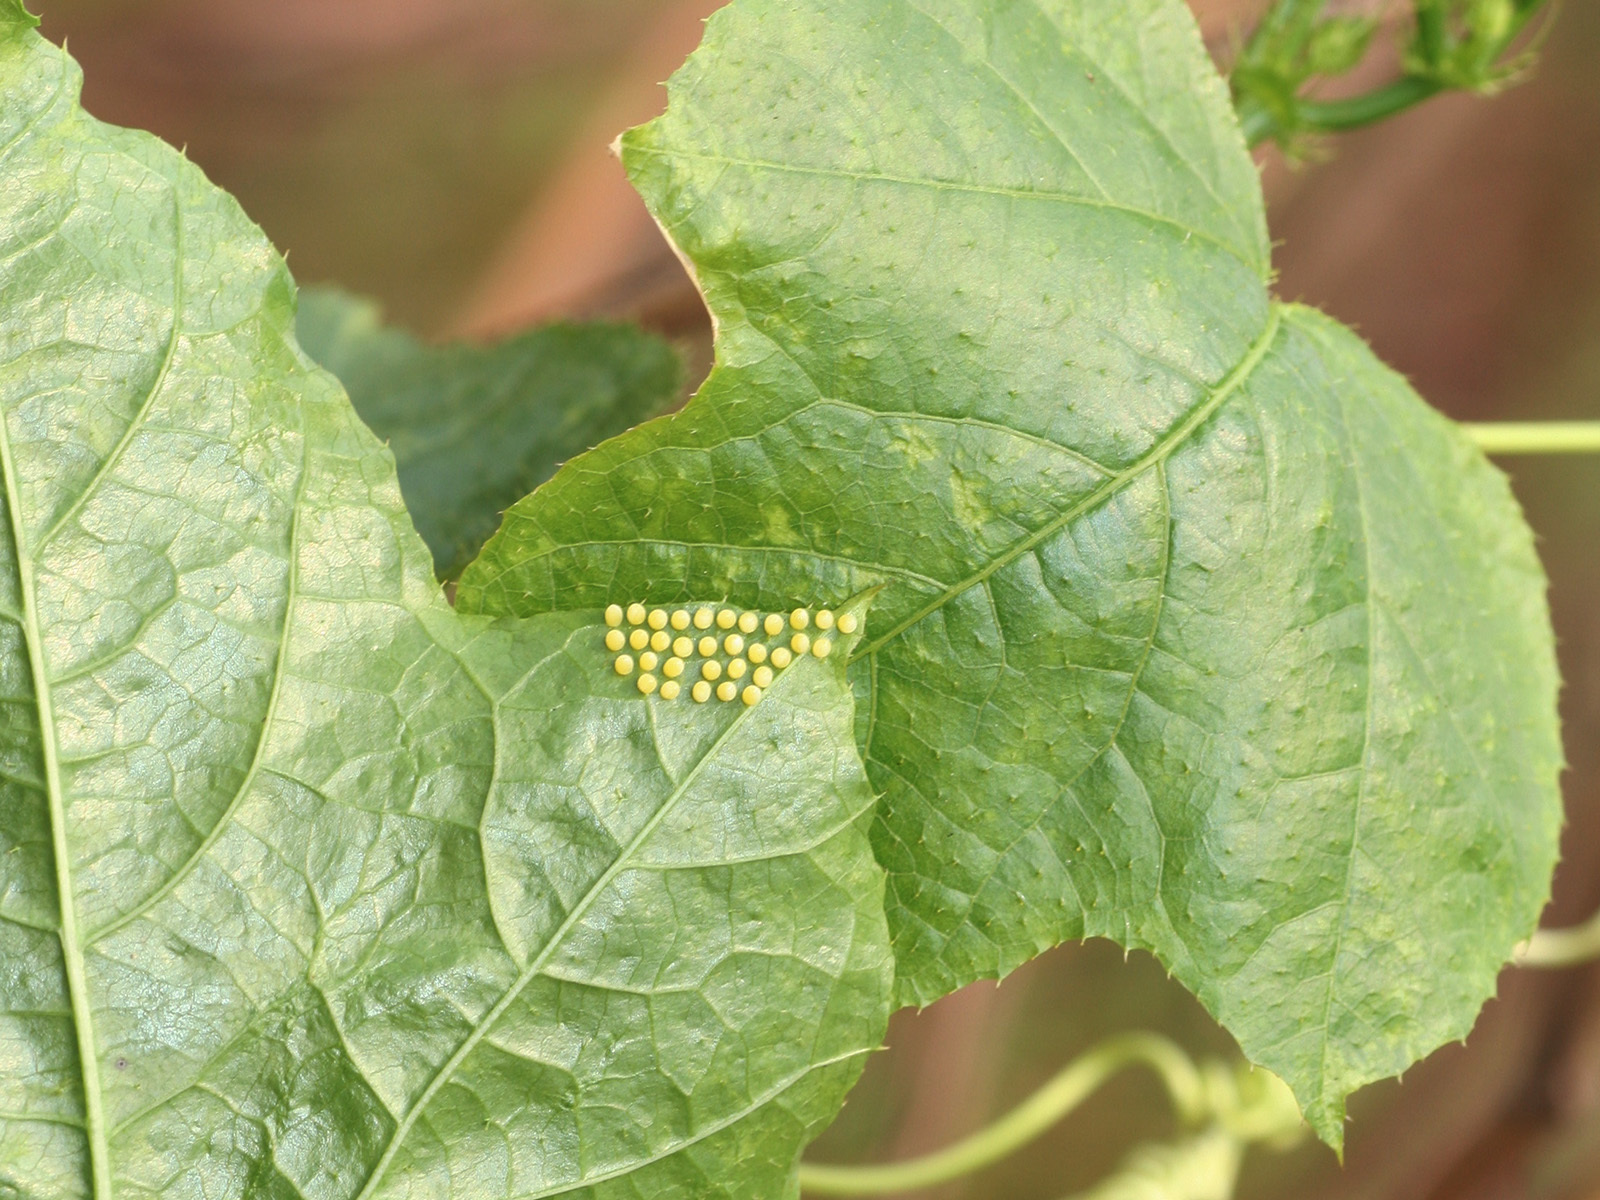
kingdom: Animalia
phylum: Arthropoda
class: Insecta
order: Lepidoptera
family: Nymphalidae
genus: Acraea
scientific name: Acraea terpsicore
